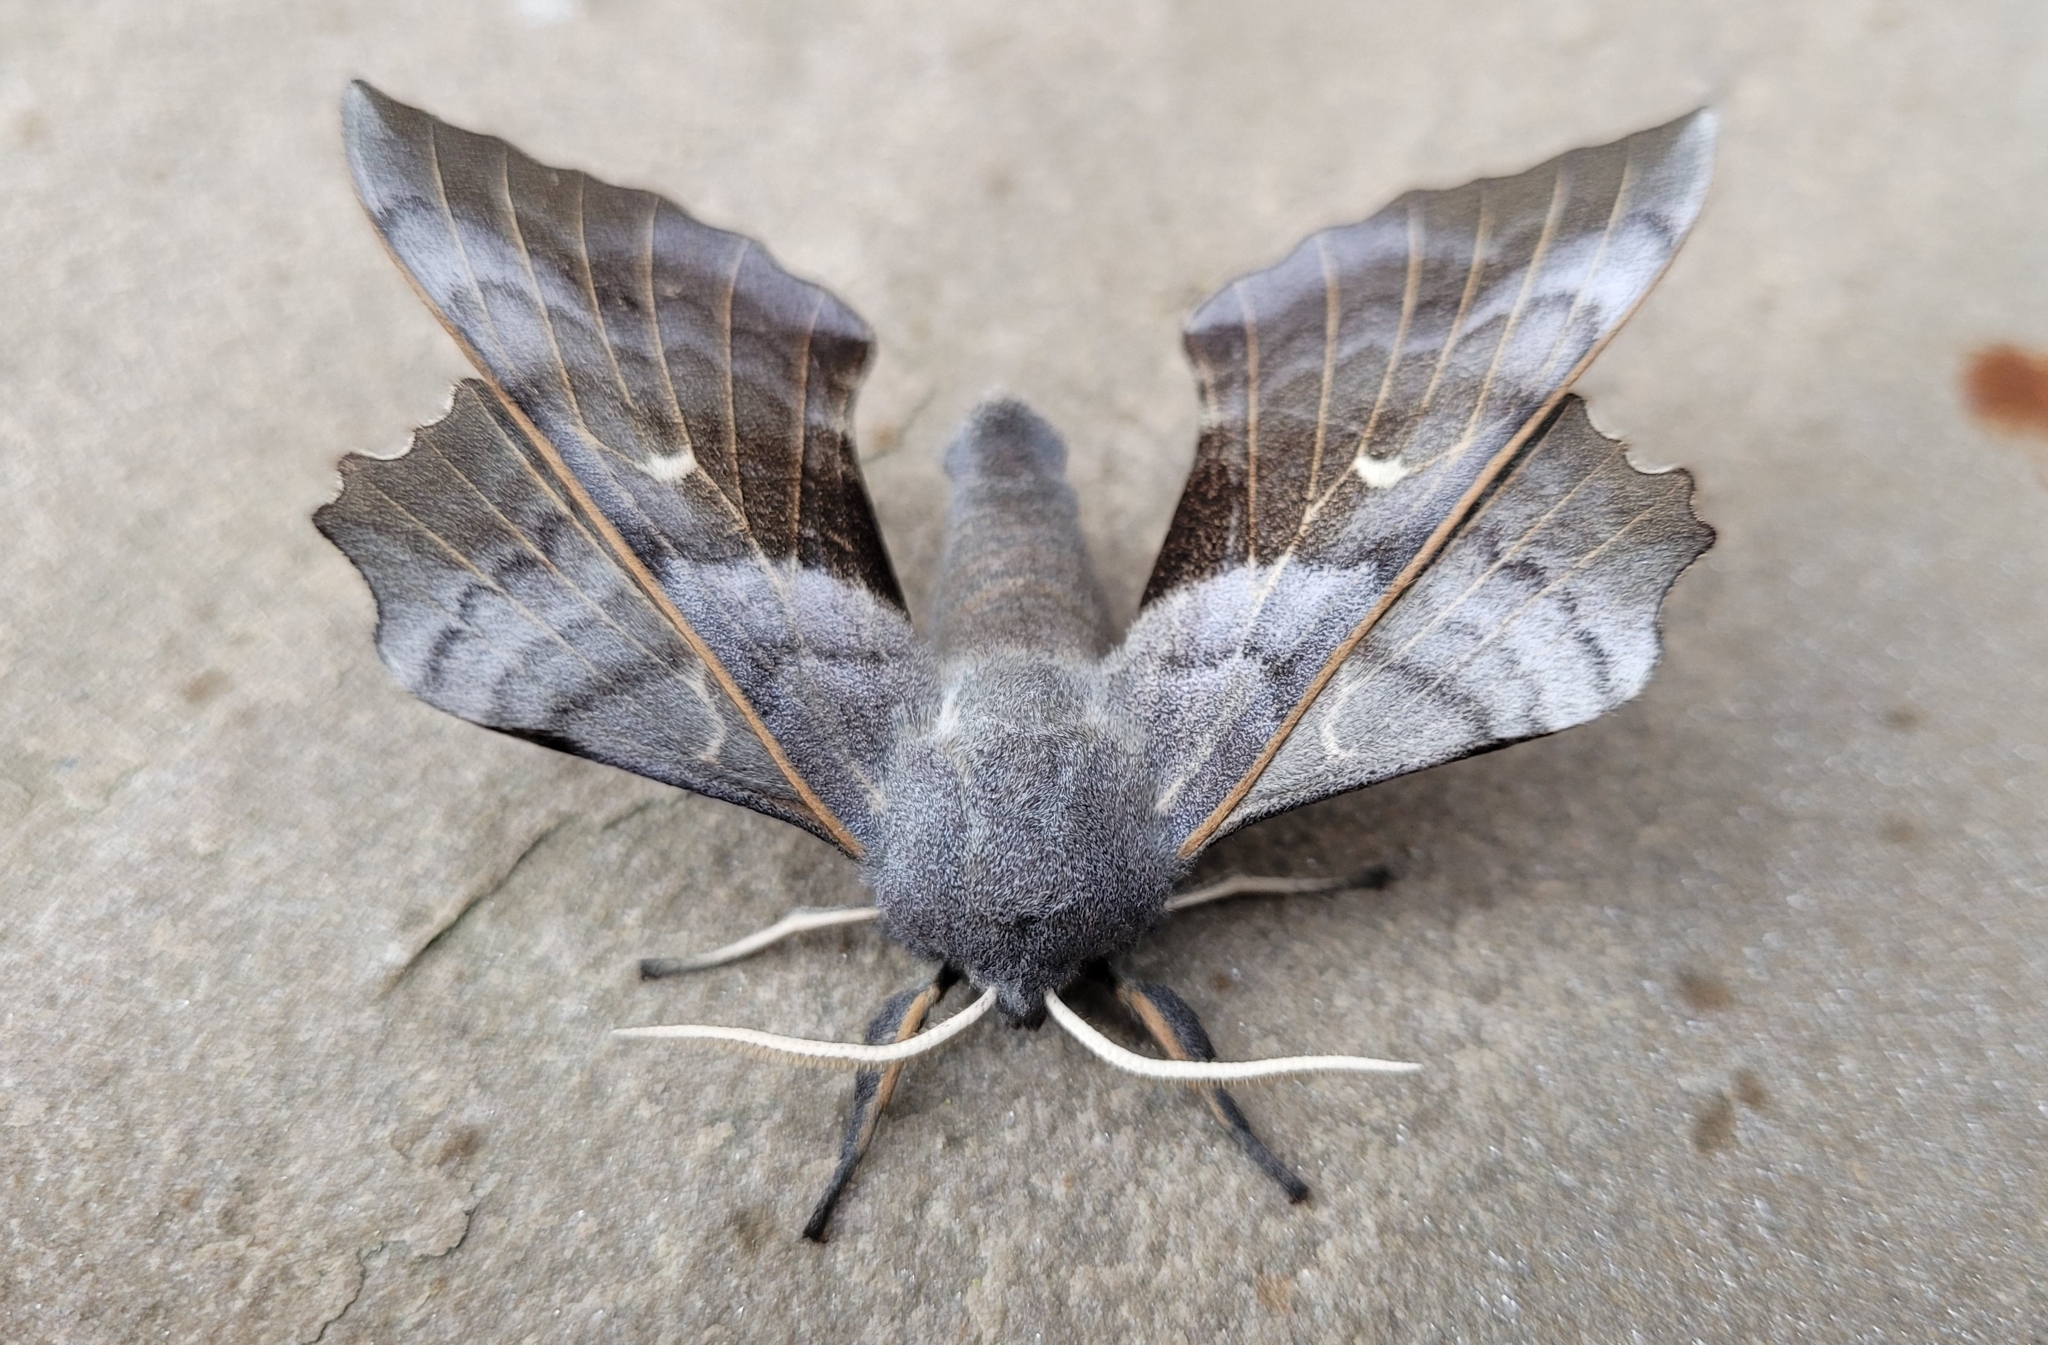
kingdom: Animalia
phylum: Arthropoda
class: Insecta
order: Lepidoptera
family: Sphingidae
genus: Laothoe
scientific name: Laothoe populi
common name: Poplar hawk-moth
